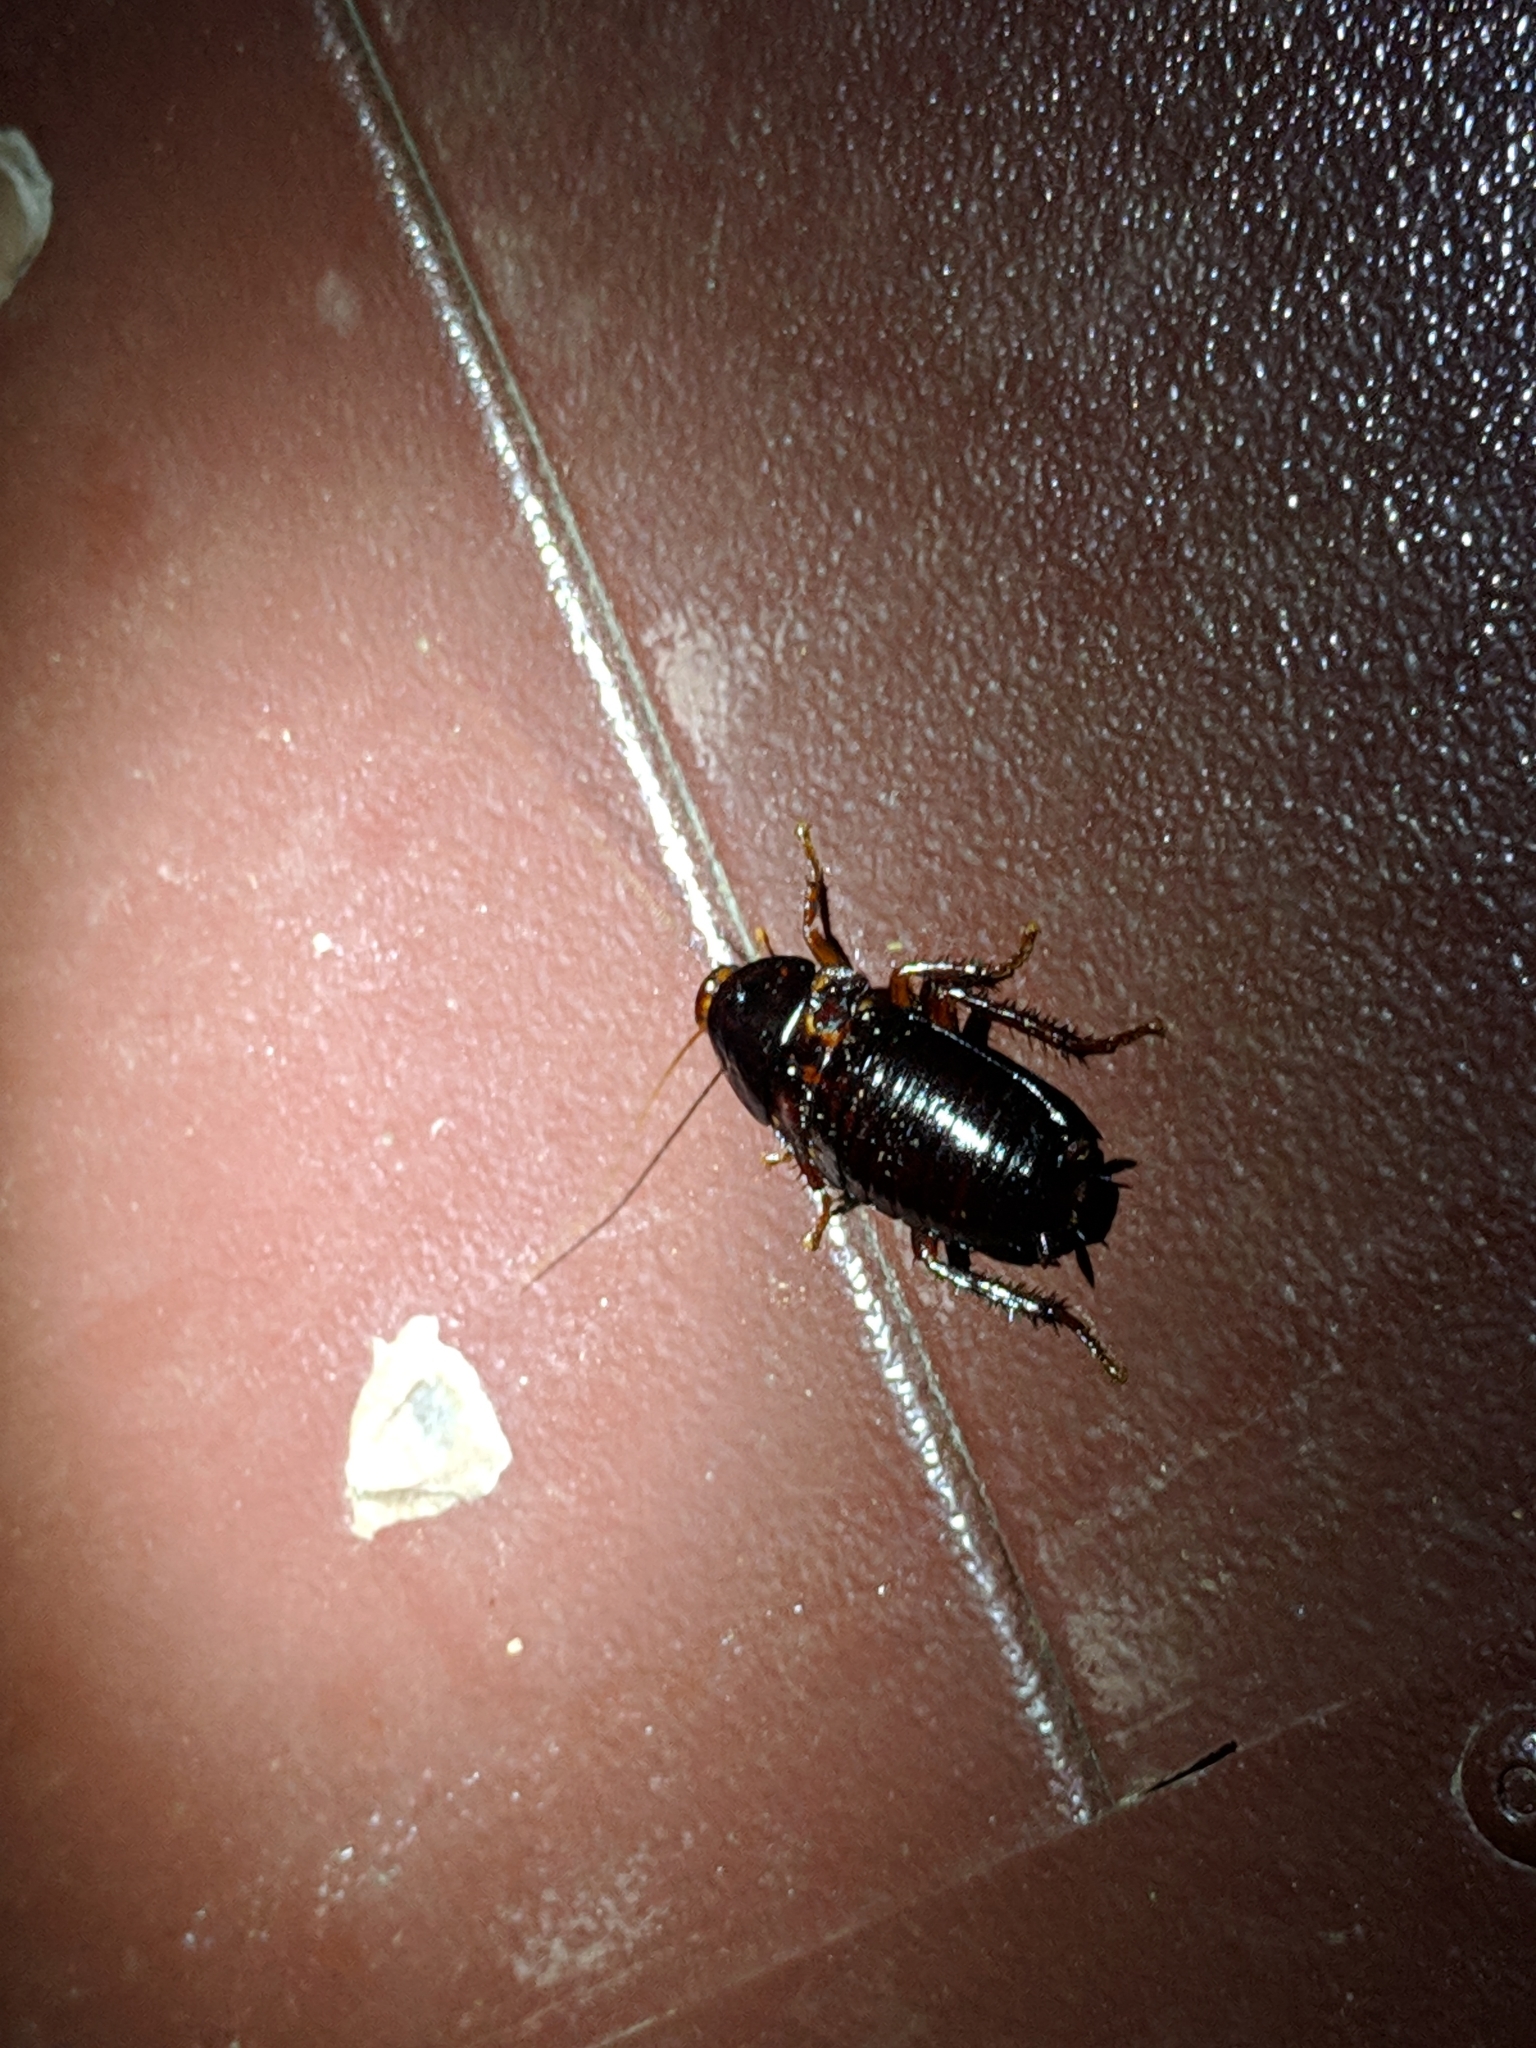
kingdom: Animalia
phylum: Arthropoda
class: Insecta
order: Blattodea
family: Blattidae
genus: Eurycotis
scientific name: Eurycotis floridana
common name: Florida cockroach
